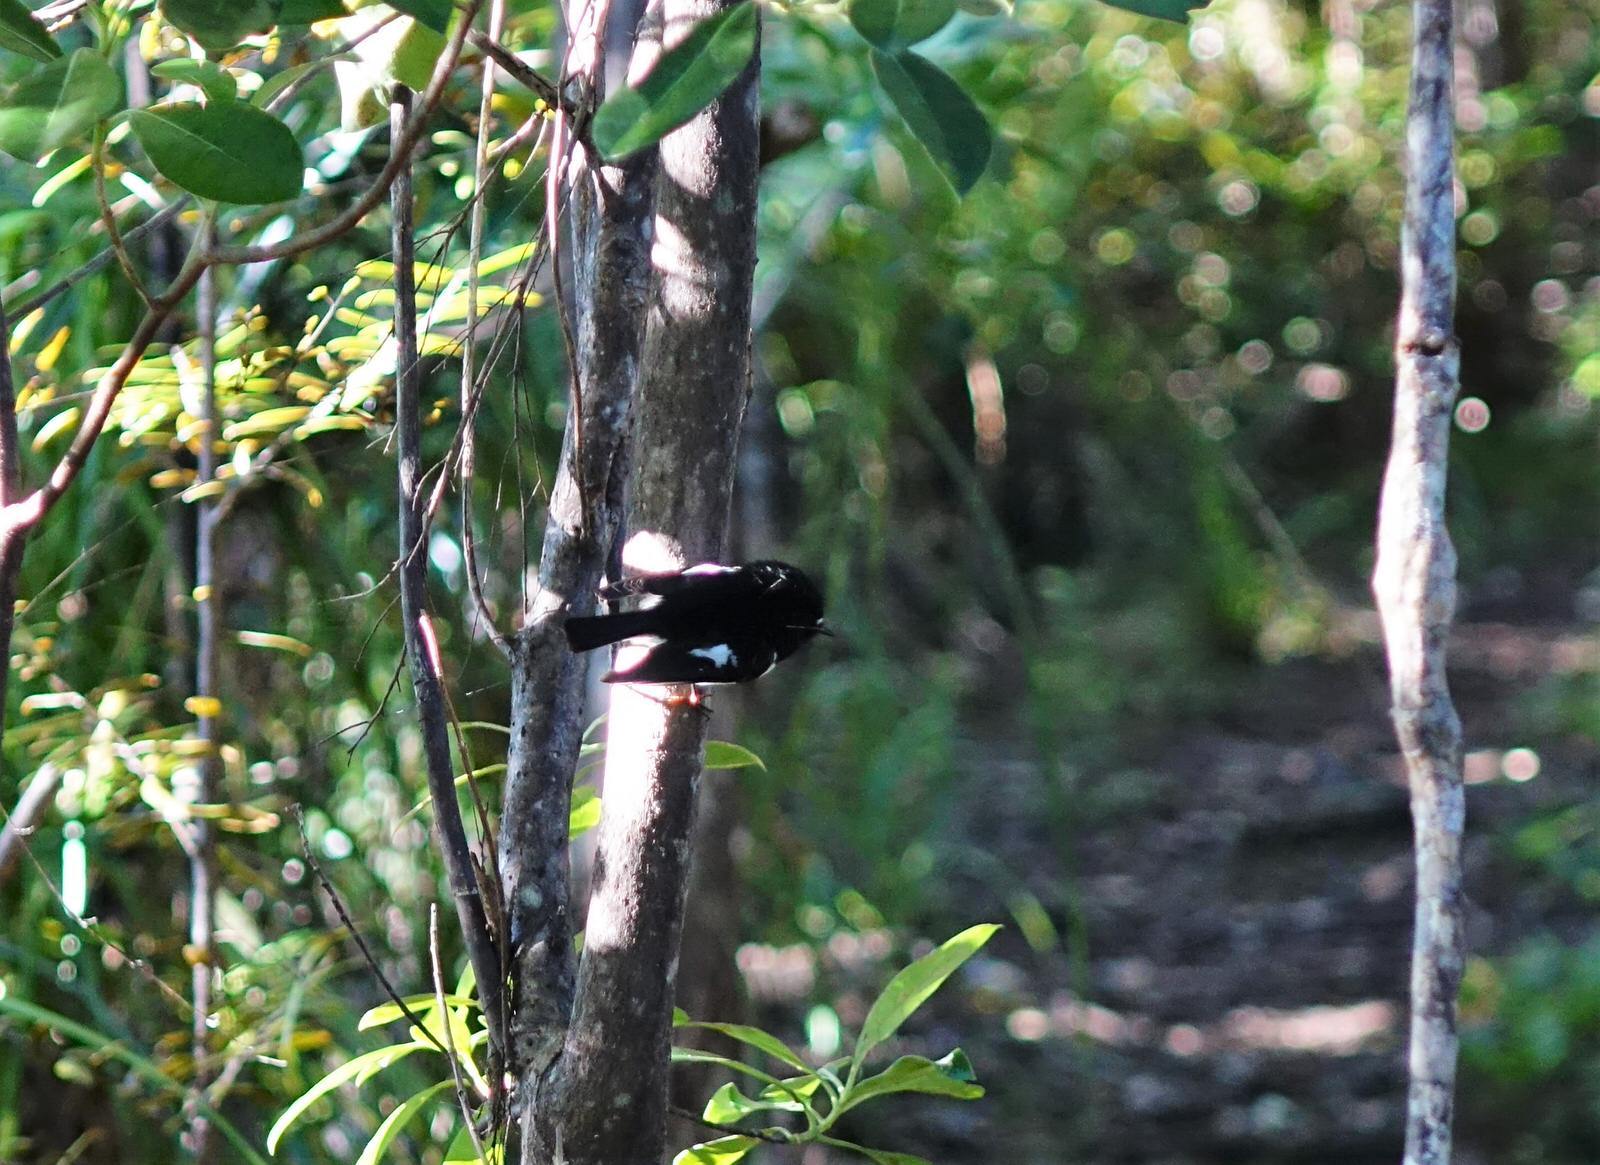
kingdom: Animalia
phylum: Chordata
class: Aves
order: Passeriformes
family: Petroicidae
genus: Petroica
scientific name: Petroica macrocephala
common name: Tomtit
